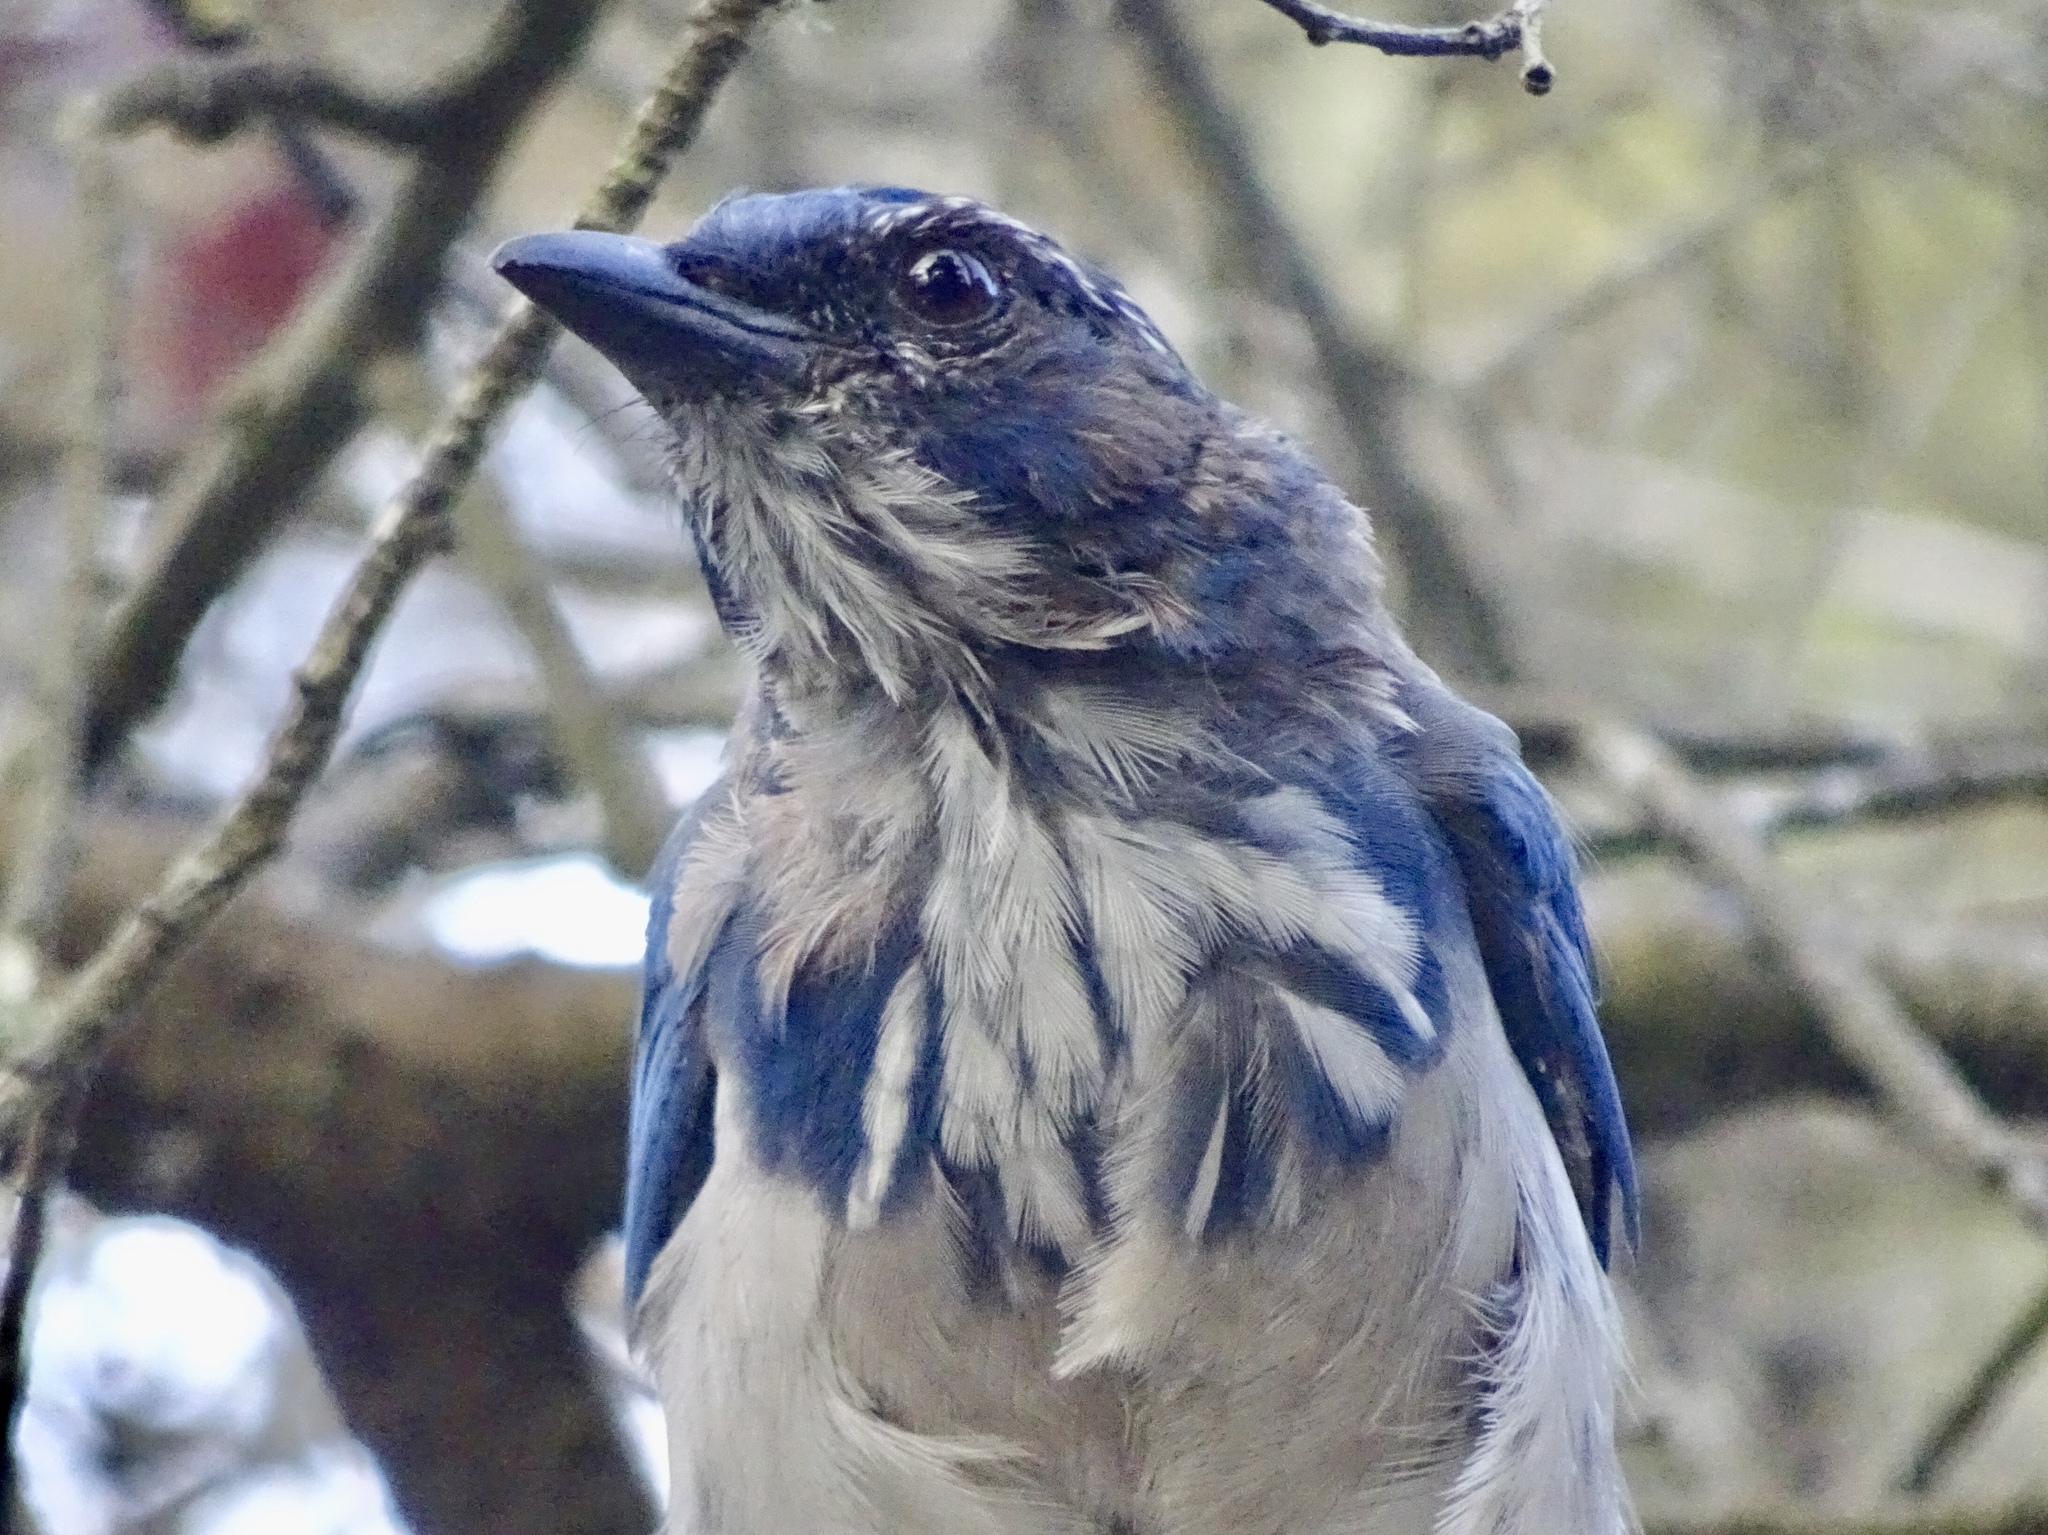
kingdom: Animalia
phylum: Chordata
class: Aves
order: Passeriformes
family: Corvidae
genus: Aphelocoma
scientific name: Aphelocoma californica
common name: California scrub-jay
